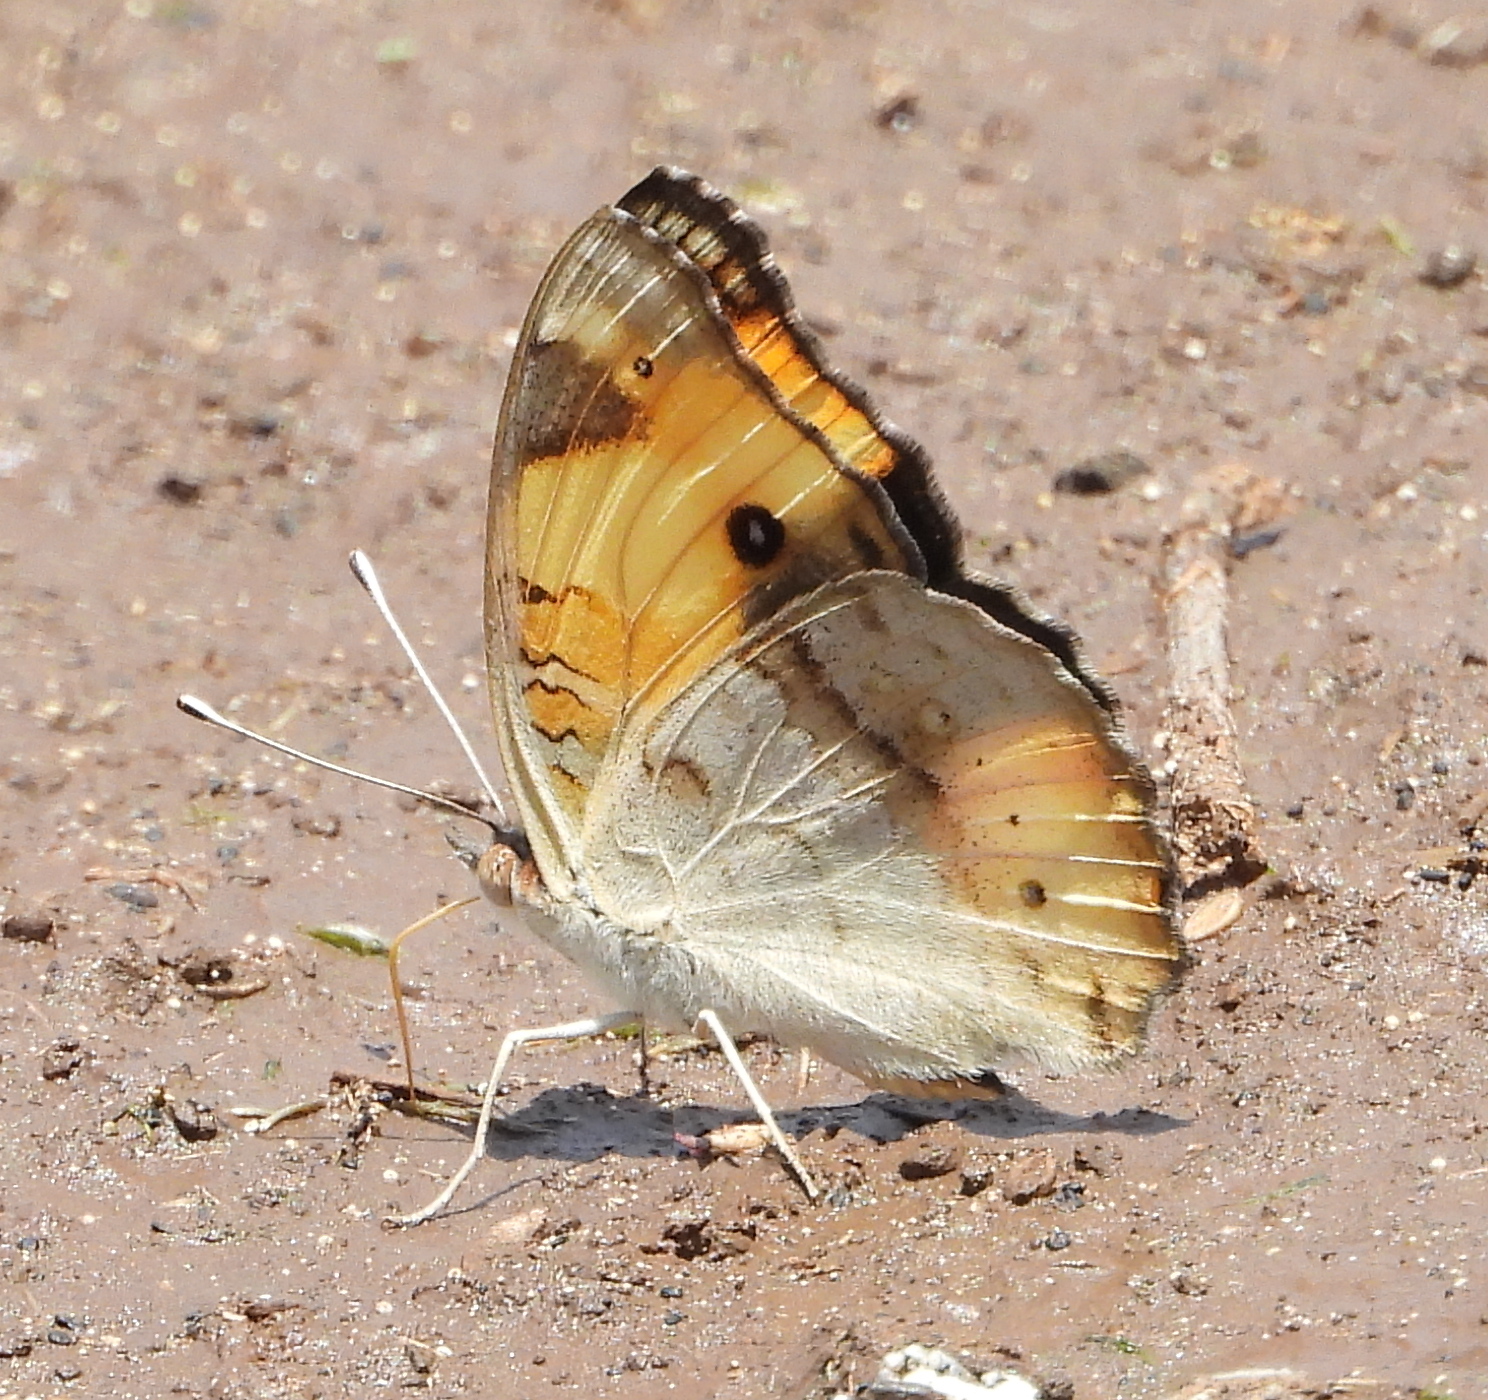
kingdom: Animalia
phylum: Arthropoda
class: Insecta
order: Lepidoptera
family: Nymphalidae
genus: Junonia
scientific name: Junonia hierta
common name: Yellow pansy
